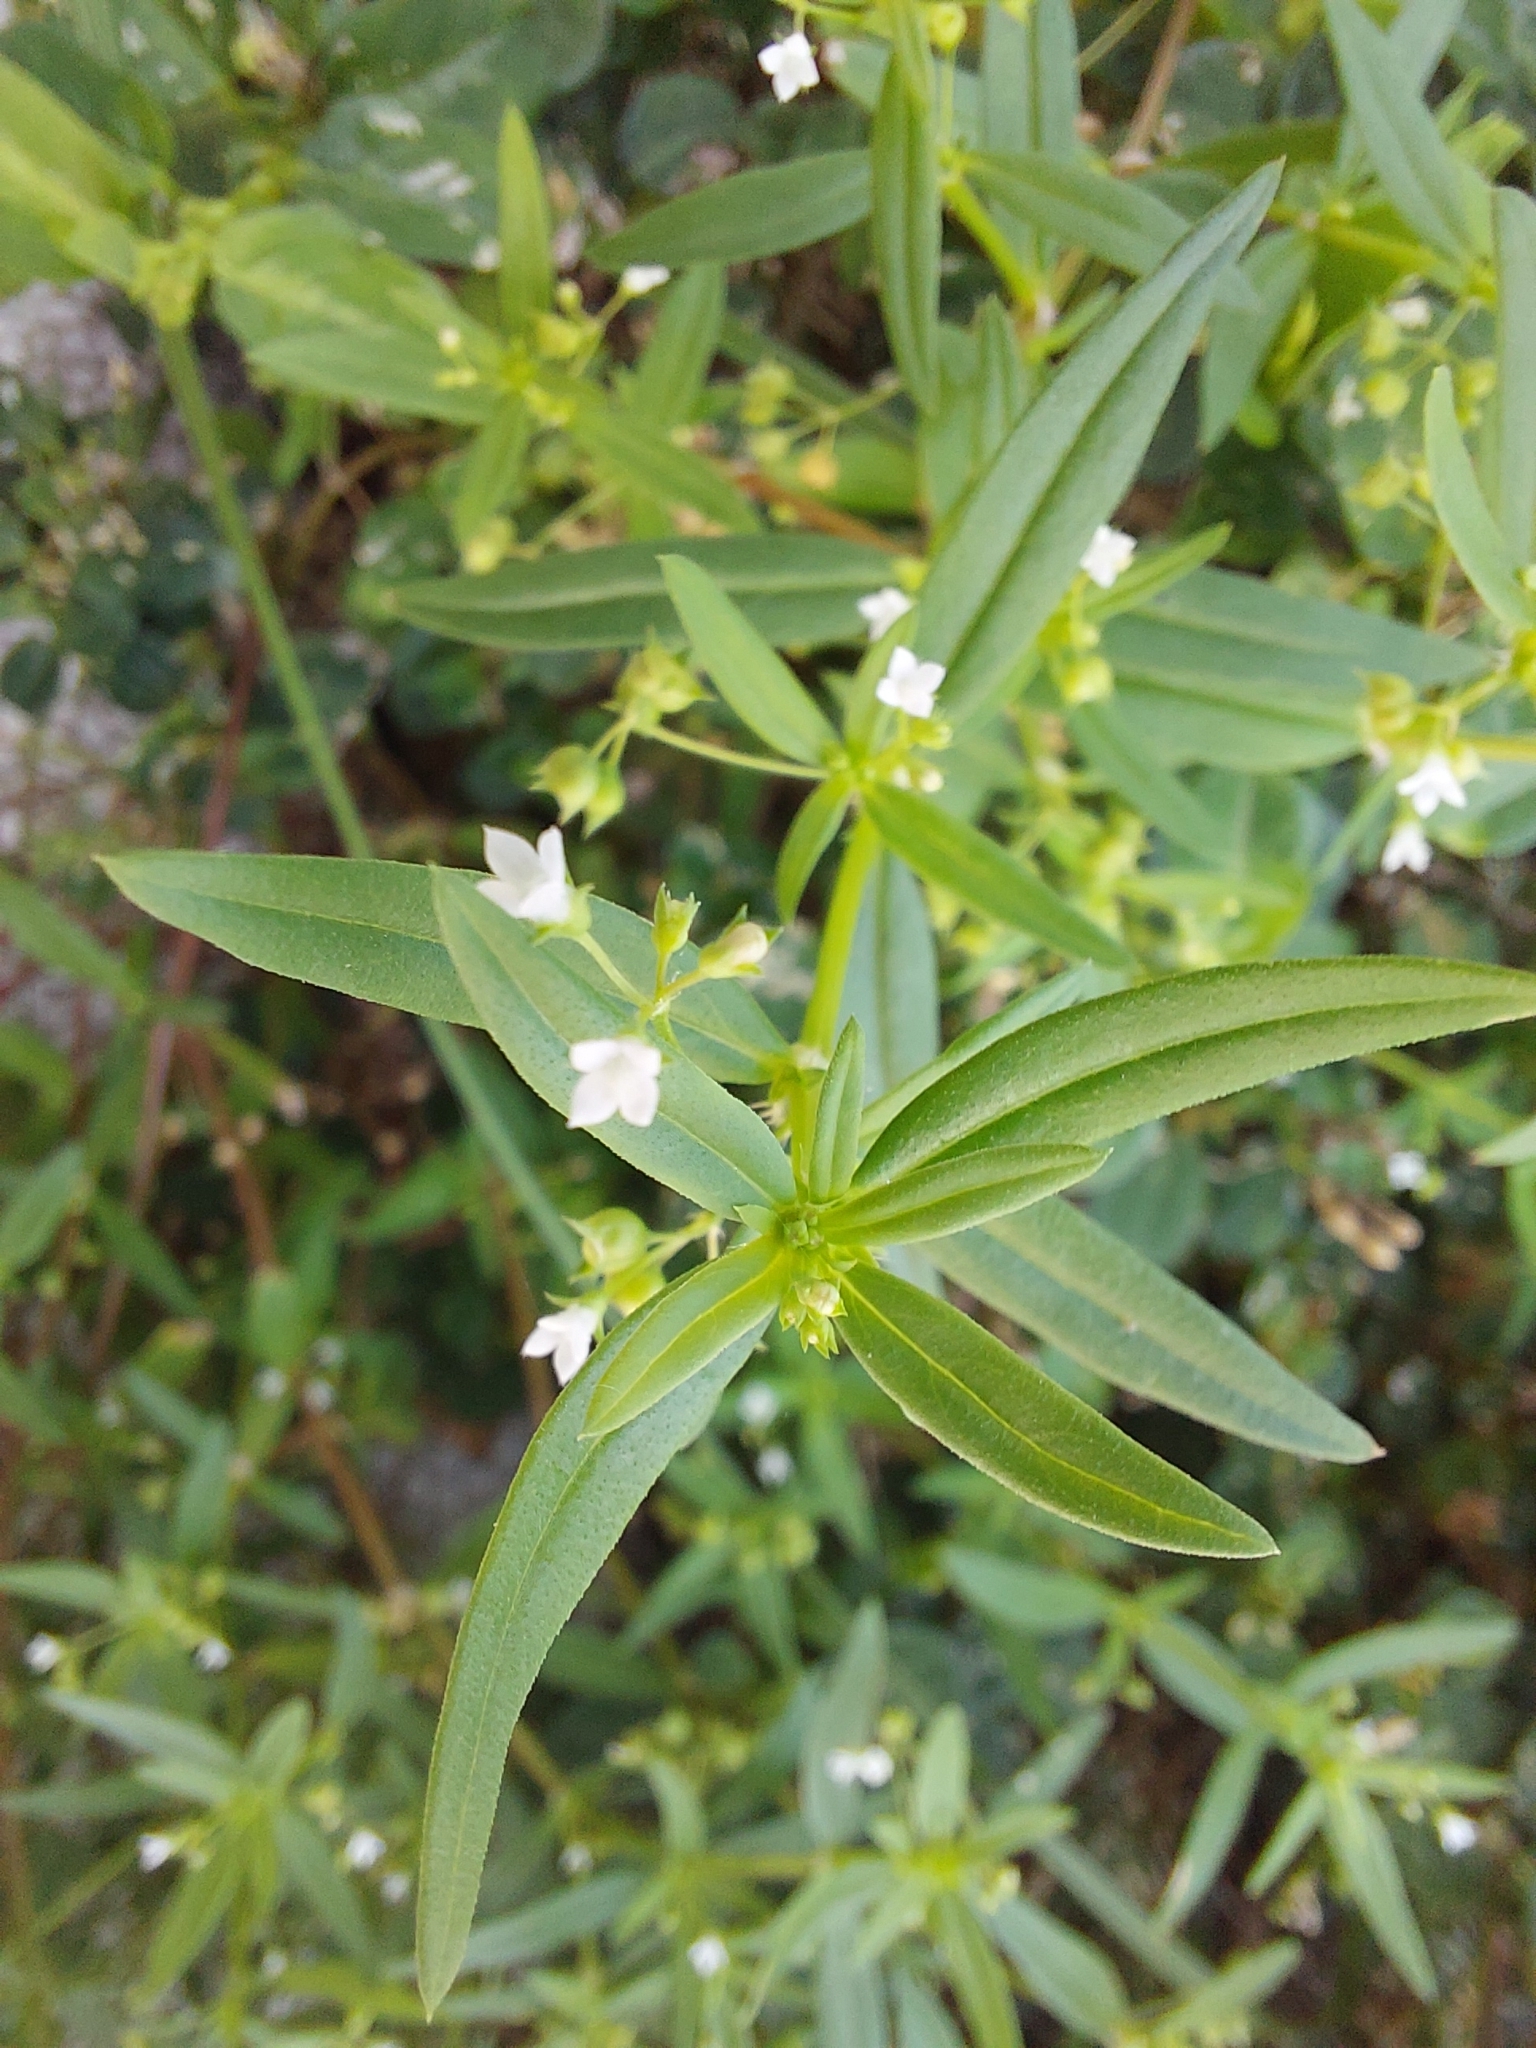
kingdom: Plantae
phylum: Tracheophyta
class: Magnoliopsida
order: Gentianales
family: Rubiaceae
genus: Oldenlandia
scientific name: Oldenlandia corymbosa
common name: Flat-top mille graines
